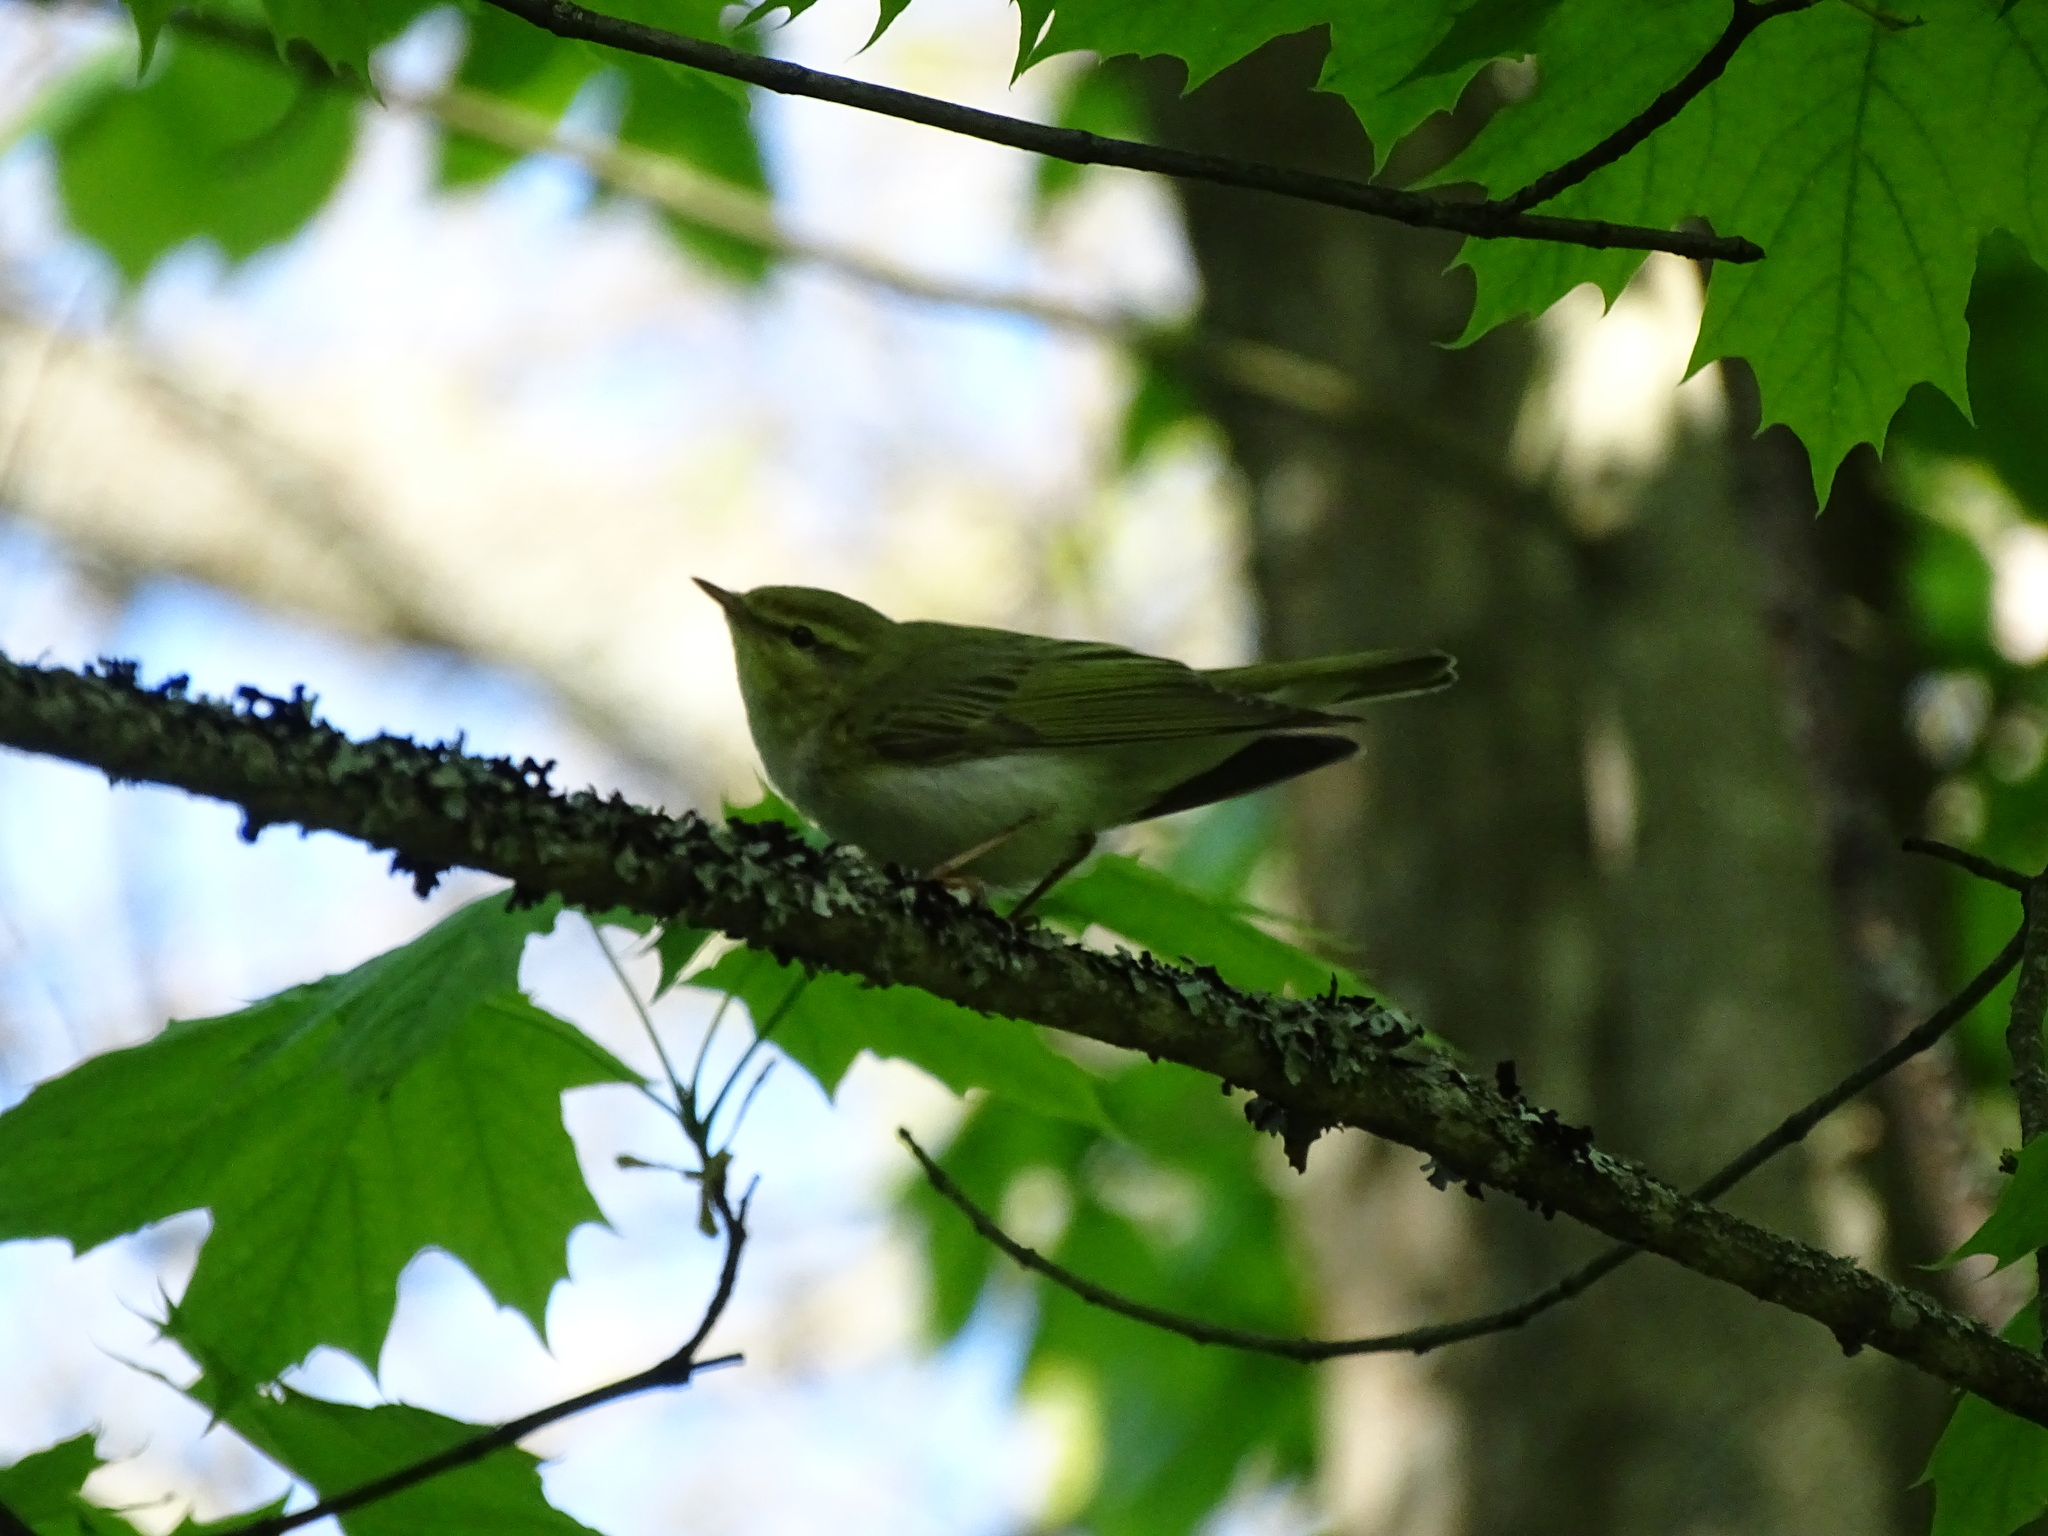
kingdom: Animalia
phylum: Chordata
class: Aves
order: Passeriformes
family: Phylloscopidae
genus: Phylloscopus
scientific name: Phylloscopus sibillatrix
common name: Wood warbler
